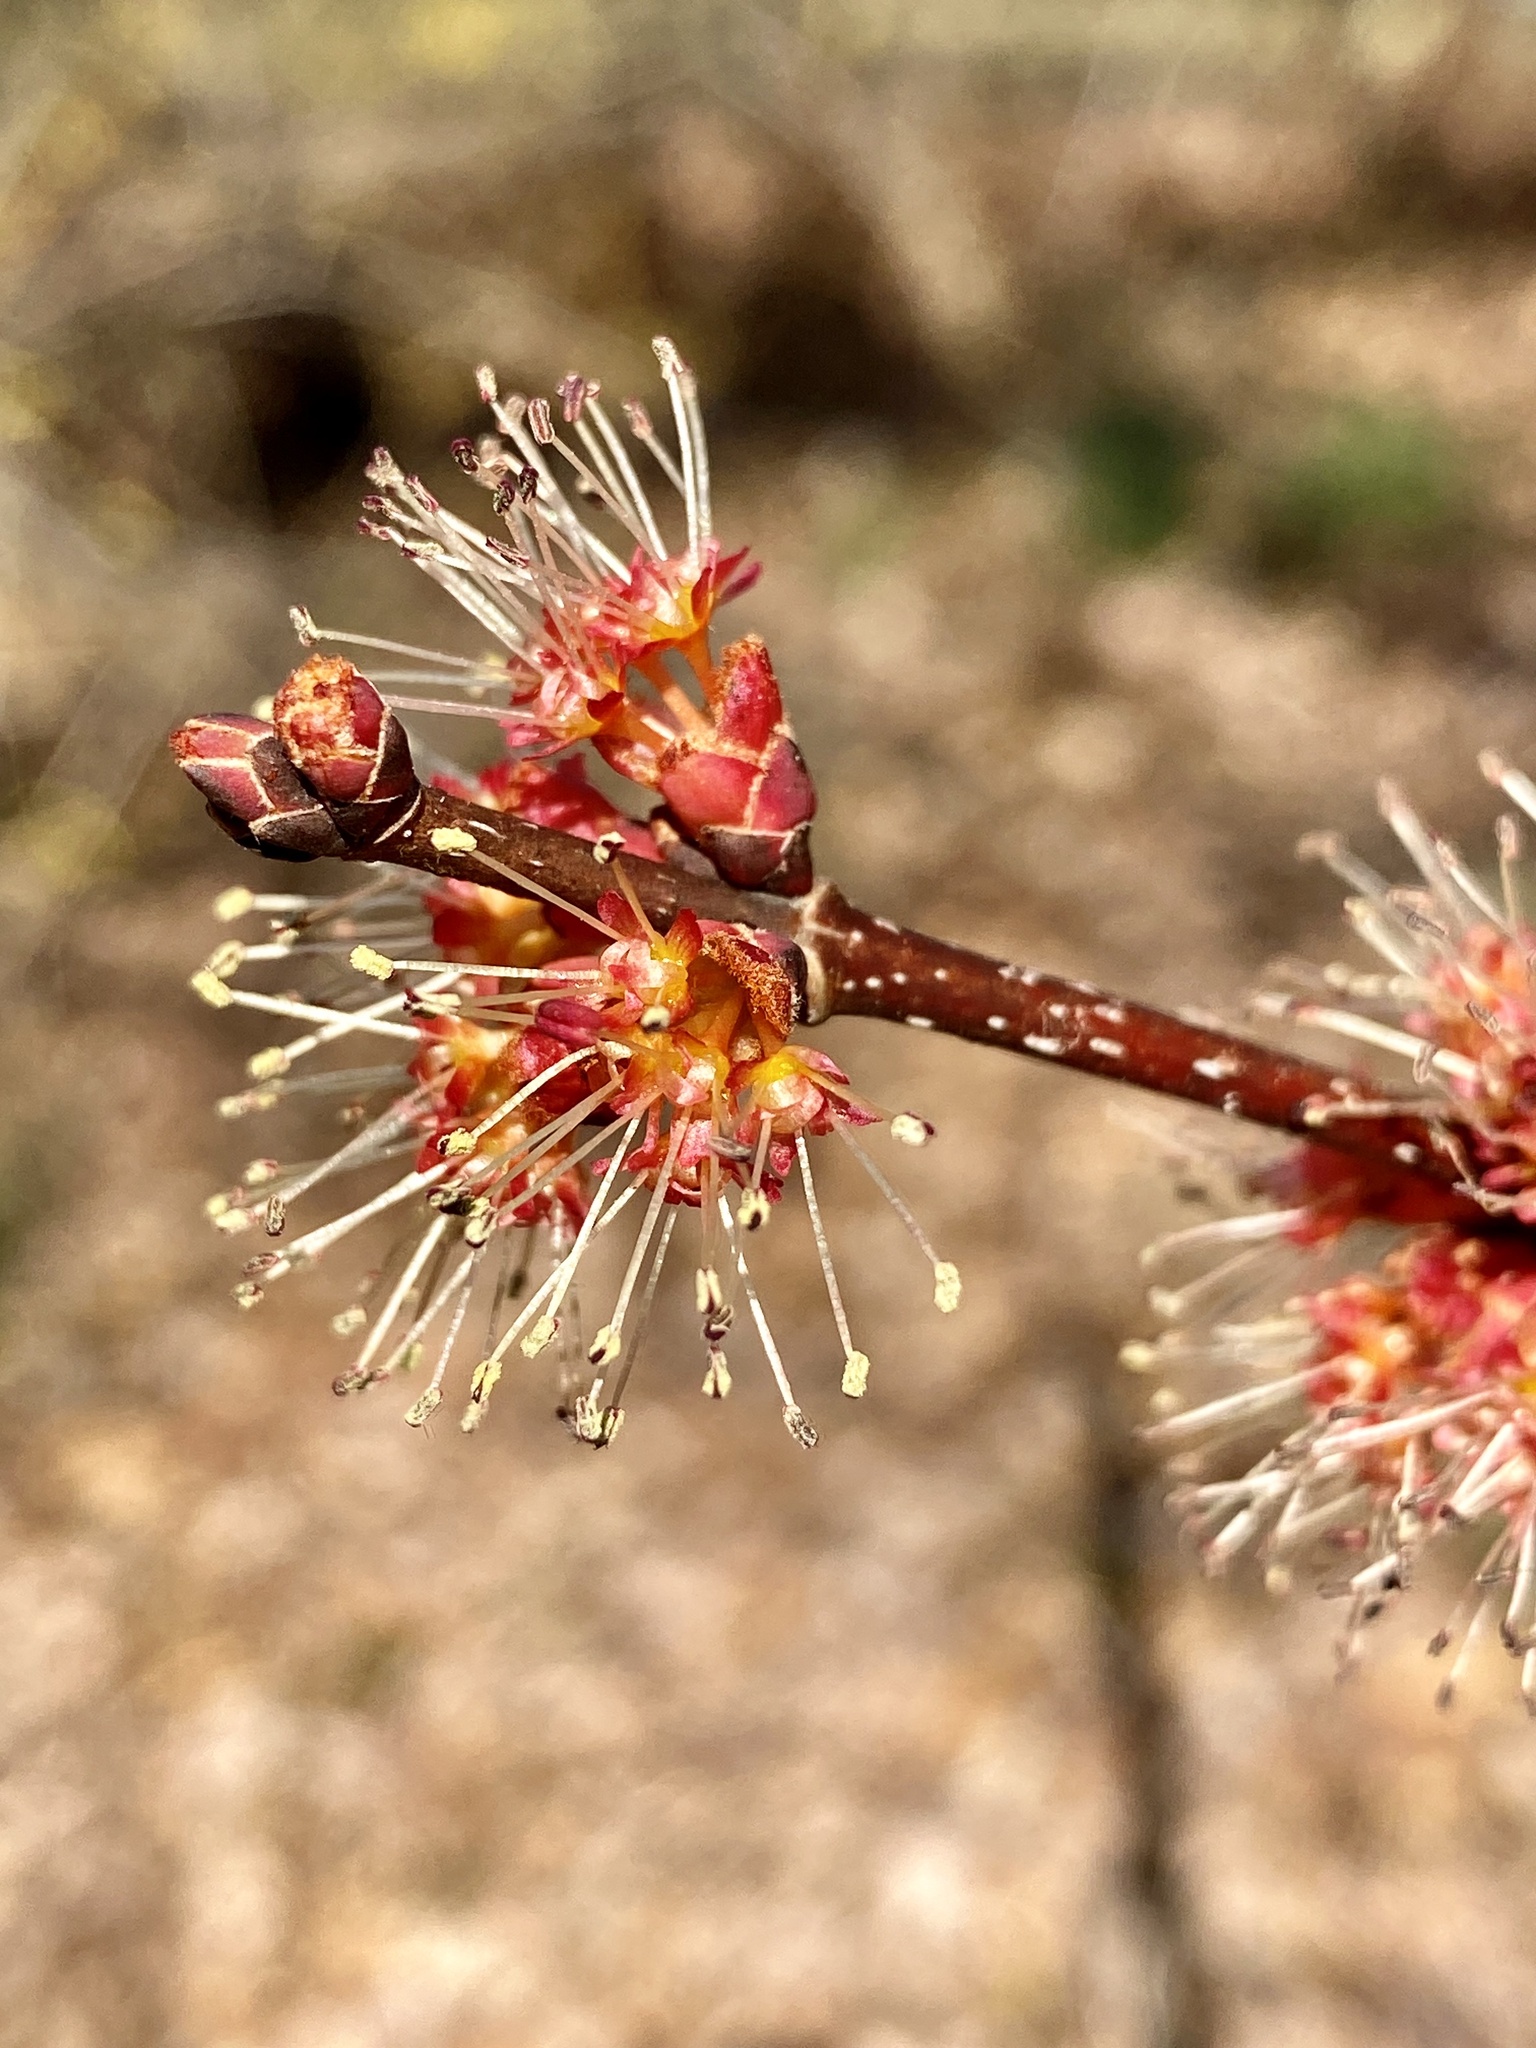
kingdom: Plantae
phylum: Tracheophyta
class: Magnoliopsida
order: Sapindales
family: Sapindaceae
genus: Acer
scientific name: Acer rubrum
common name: Red maple
